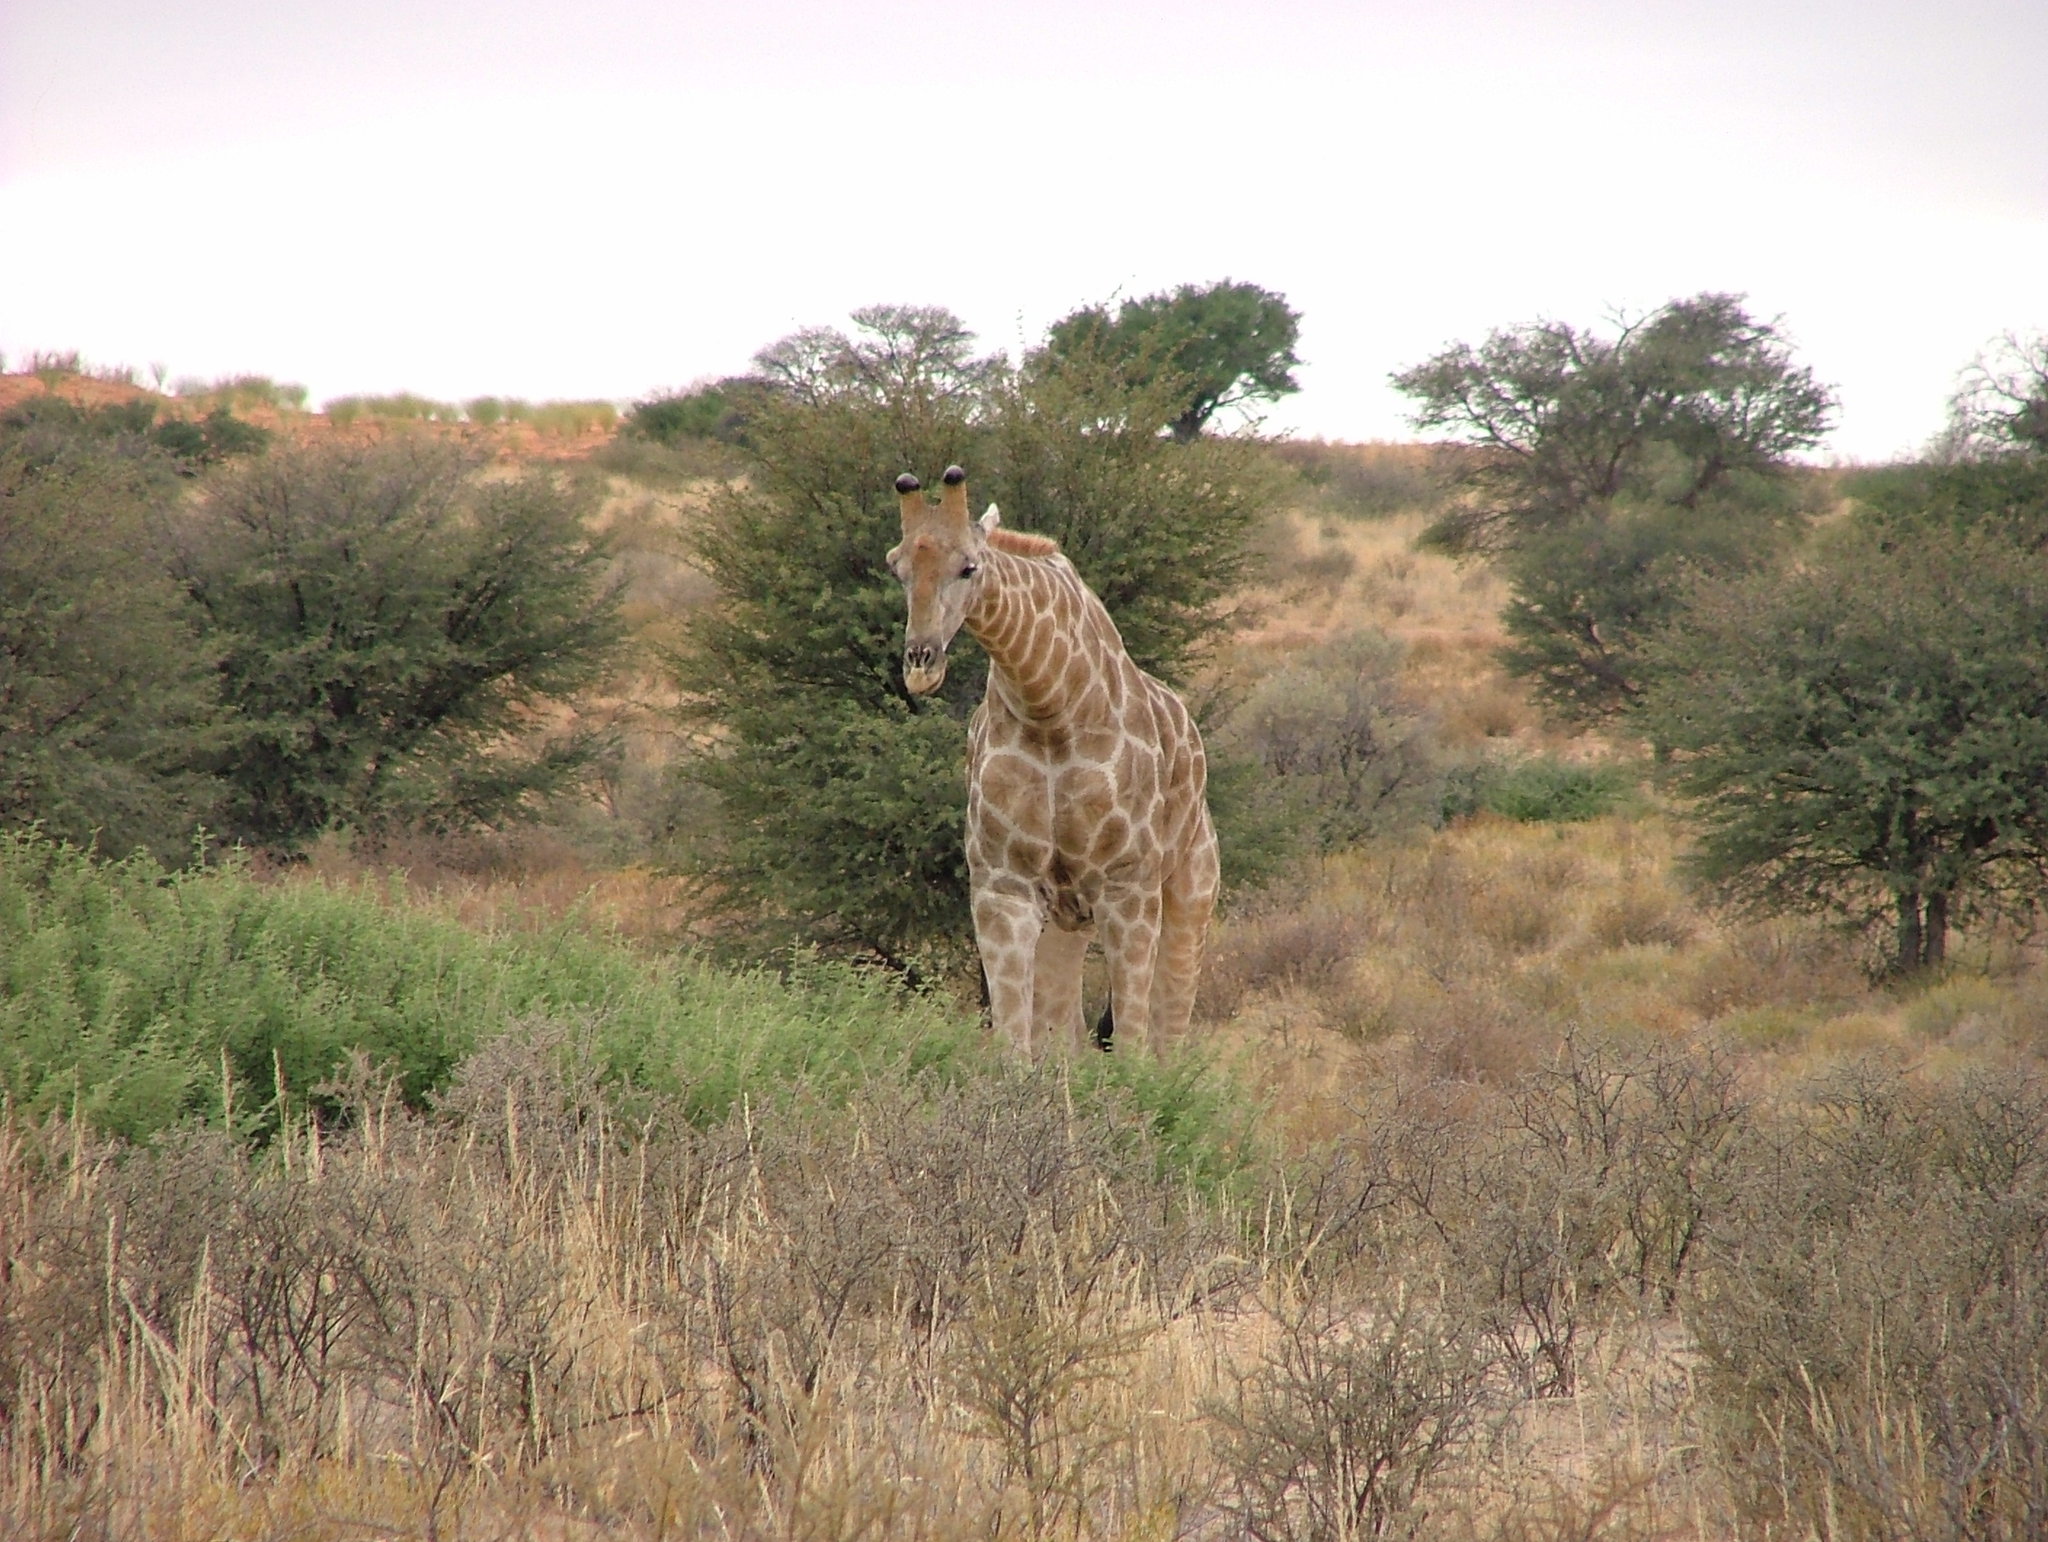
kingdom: Animalia
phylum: Chordata
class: Mammalia
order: Artiodactyla
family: Giraffidae
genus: Giraffa
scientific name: Giraffa giraffa
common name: Southern giraffe
